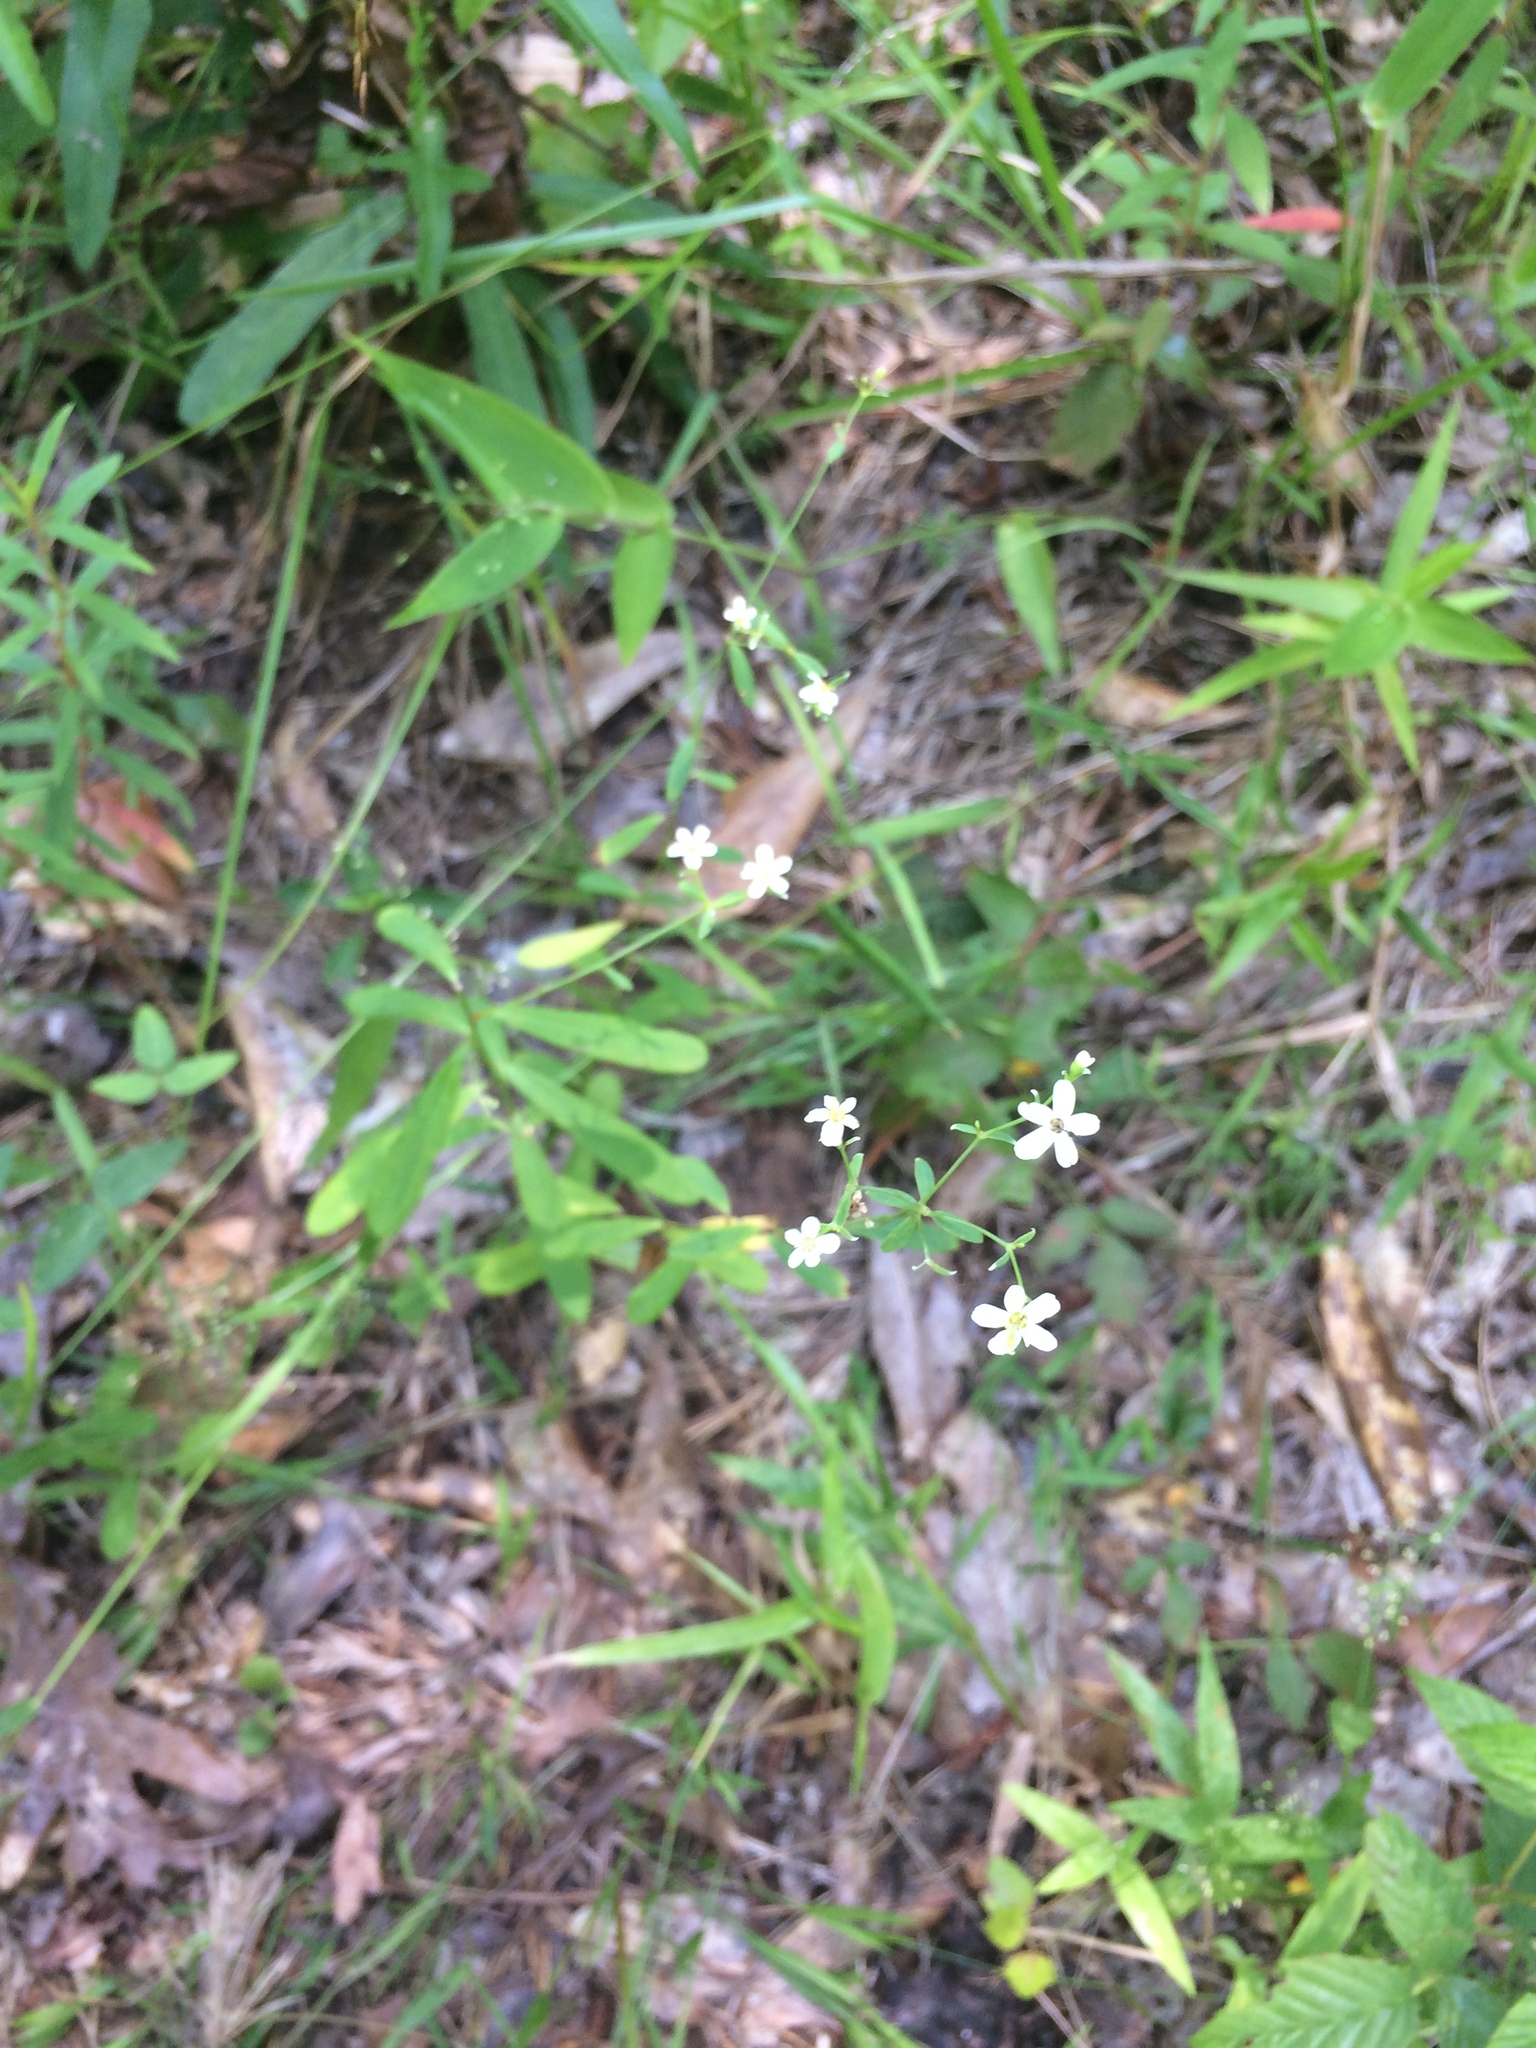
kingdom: Plantae
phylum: Tracheophyta
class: Magnoliopsida
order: Malpighiales
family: Euphorbiaceae
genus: Euphorbia
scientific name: Euphorbia corollata
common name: Flowering spurge
